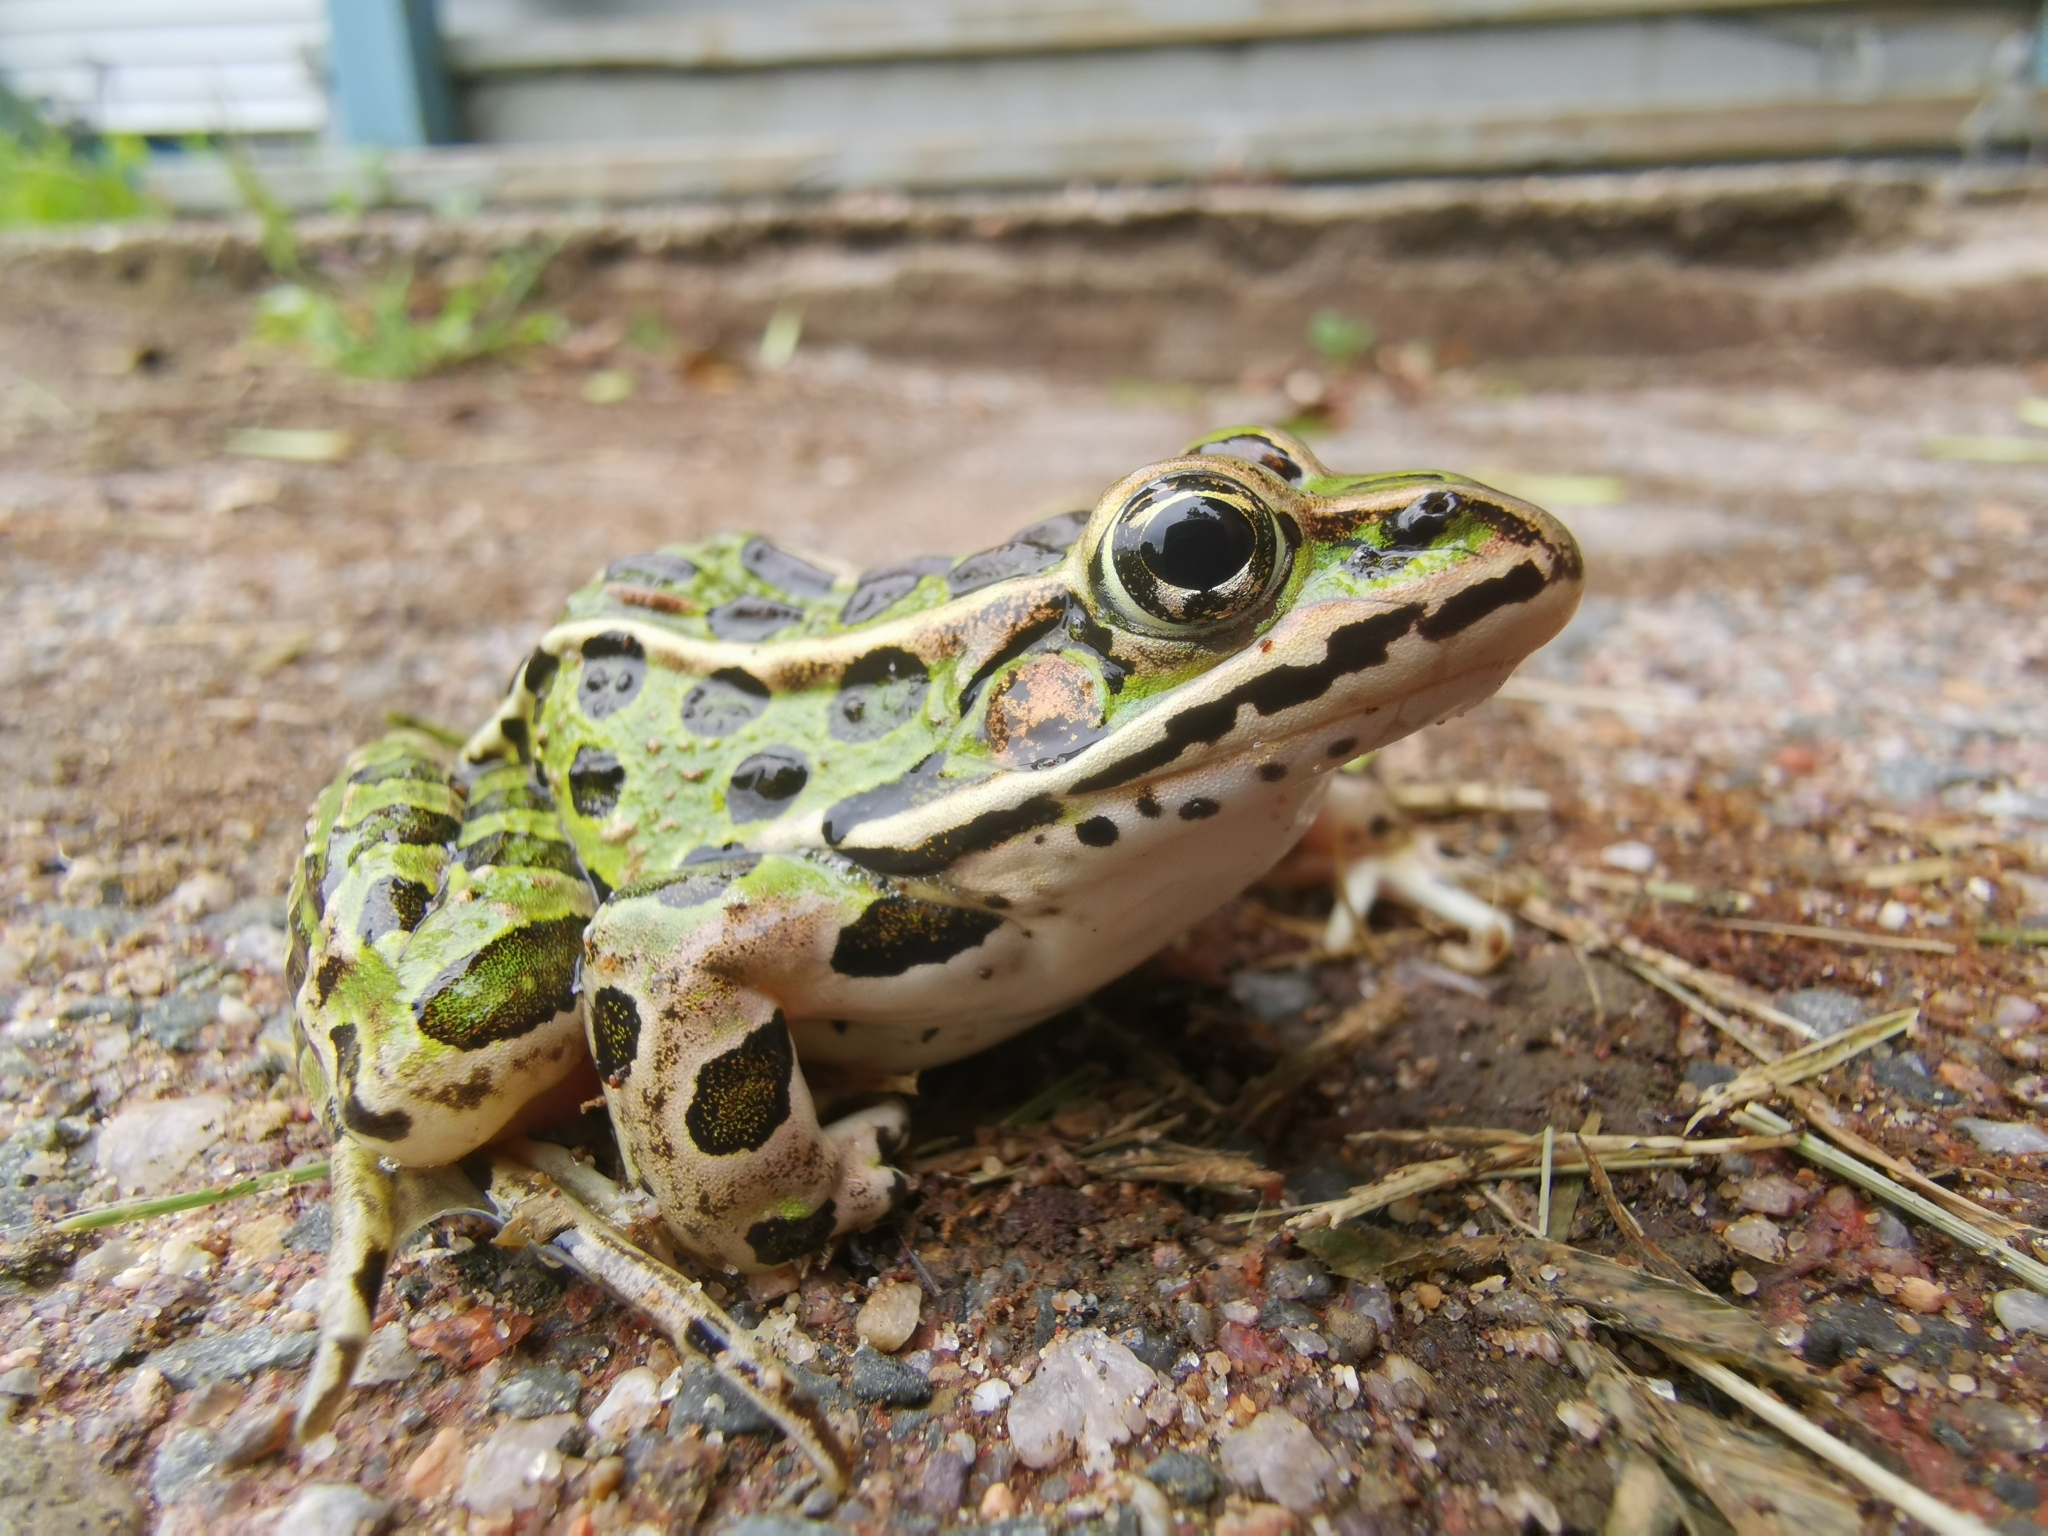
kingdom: Animalia
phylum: Chordata
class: Amphibia
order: Anura
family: Ranidae
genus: Lithobates
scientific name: Lithobates pipiens
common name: Northern leopard frog
